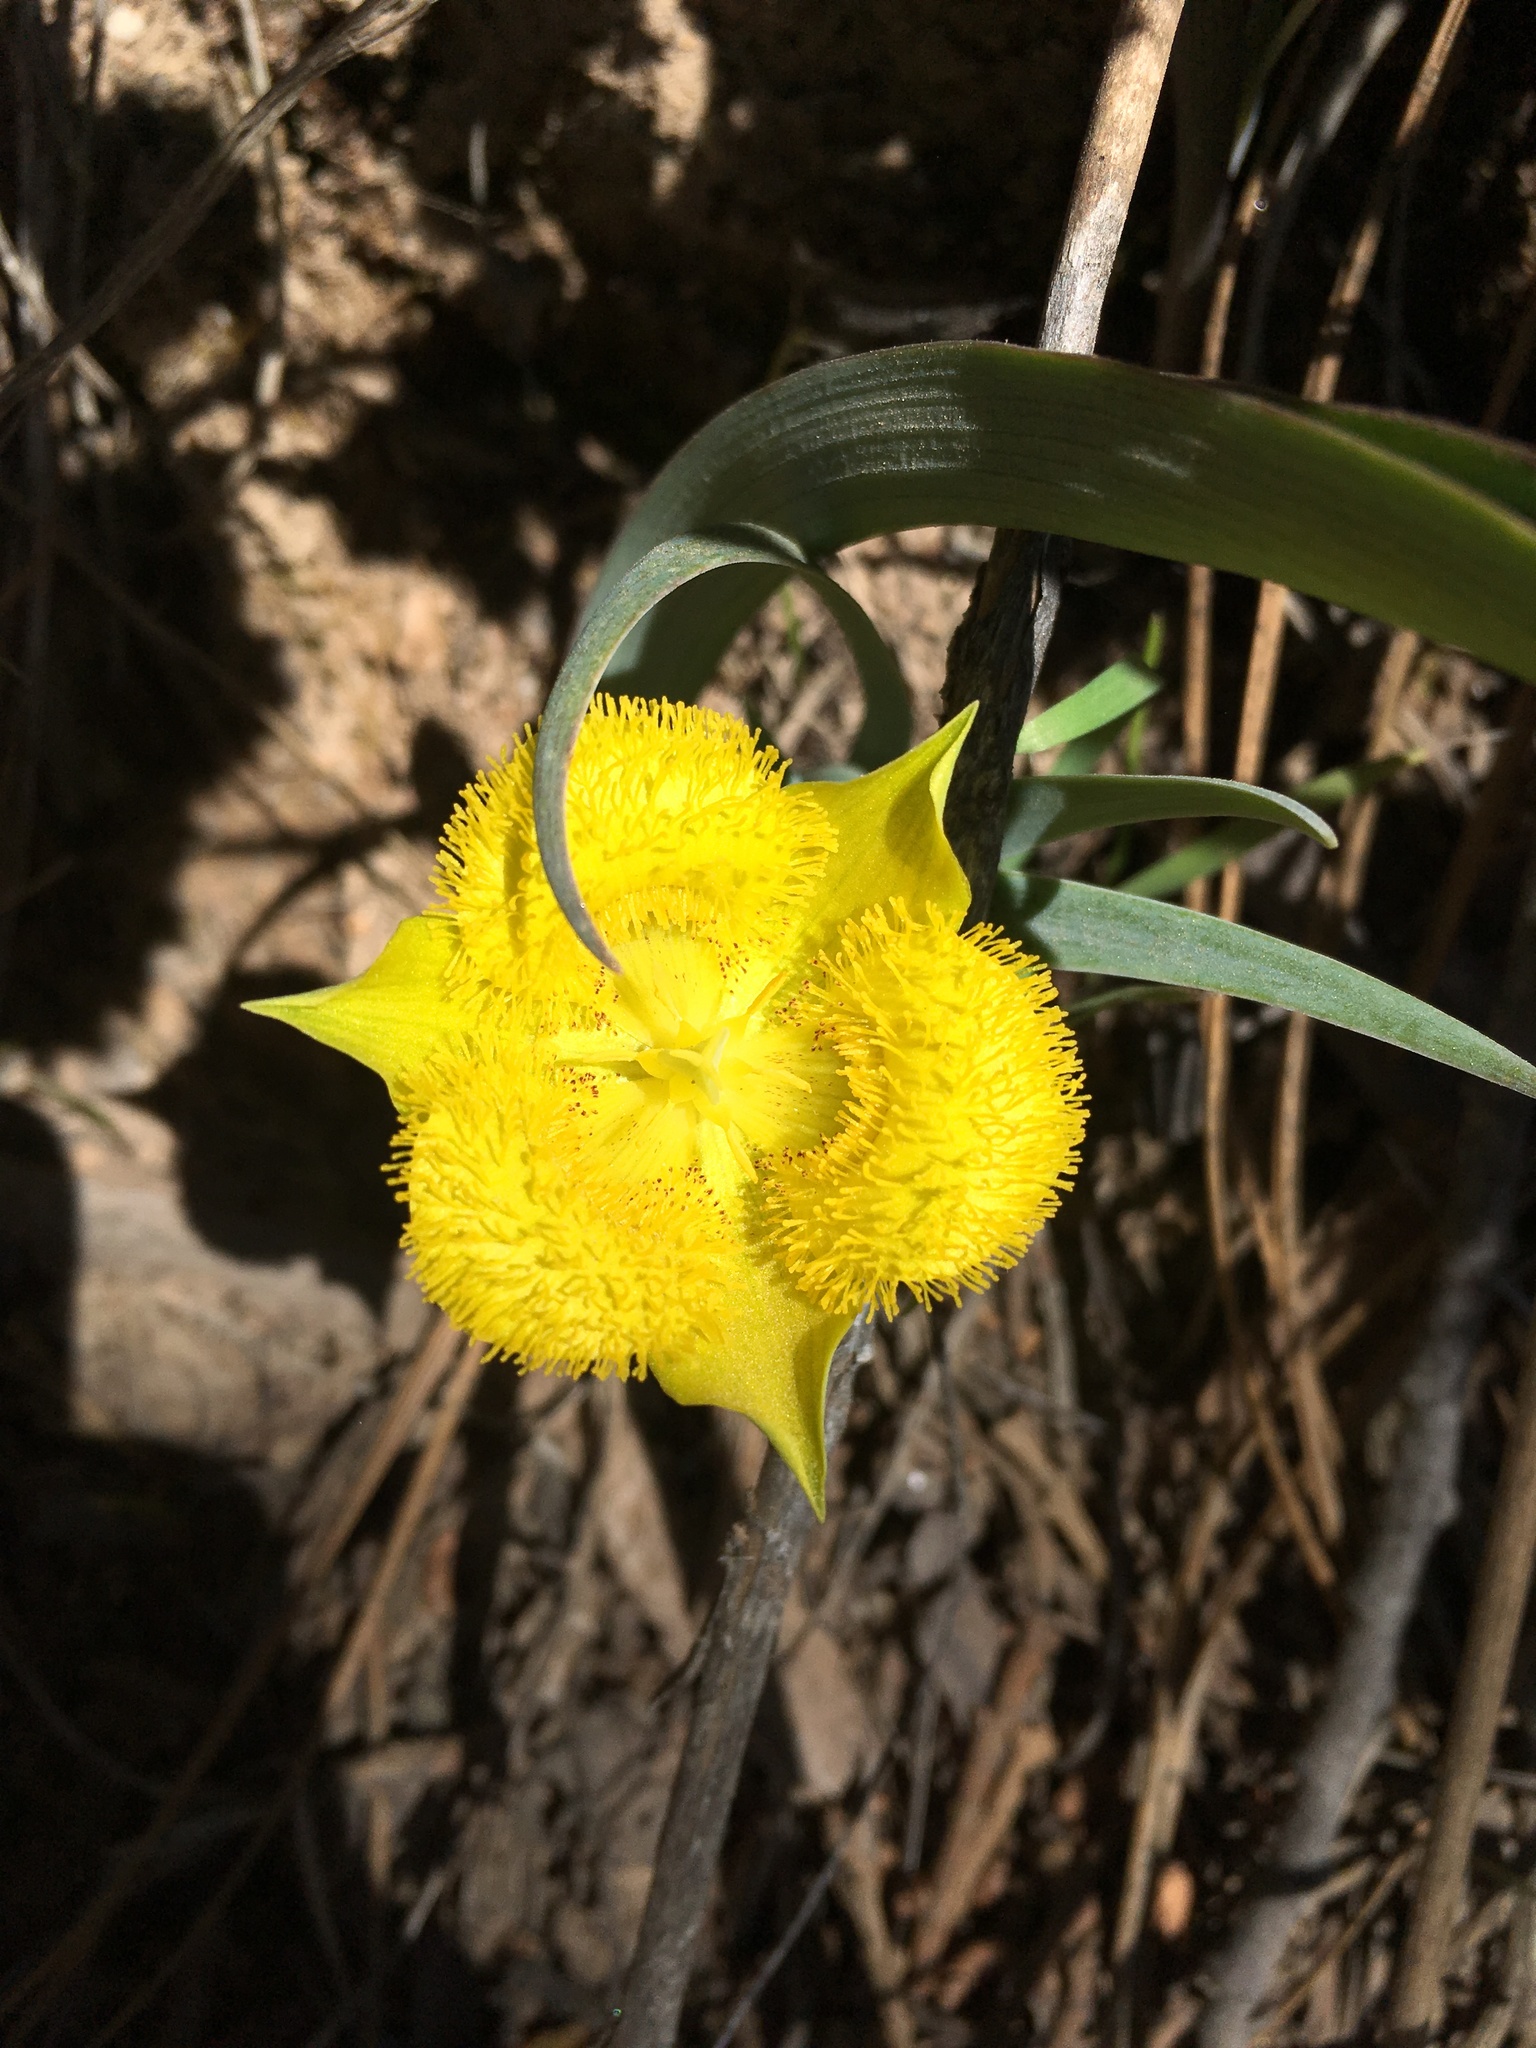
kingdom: Plantae
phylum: Tracheophyta
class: Liliopsida
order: Liliales
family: Liliaceae
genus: Calochortus
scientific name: Calochortus monophyllus
